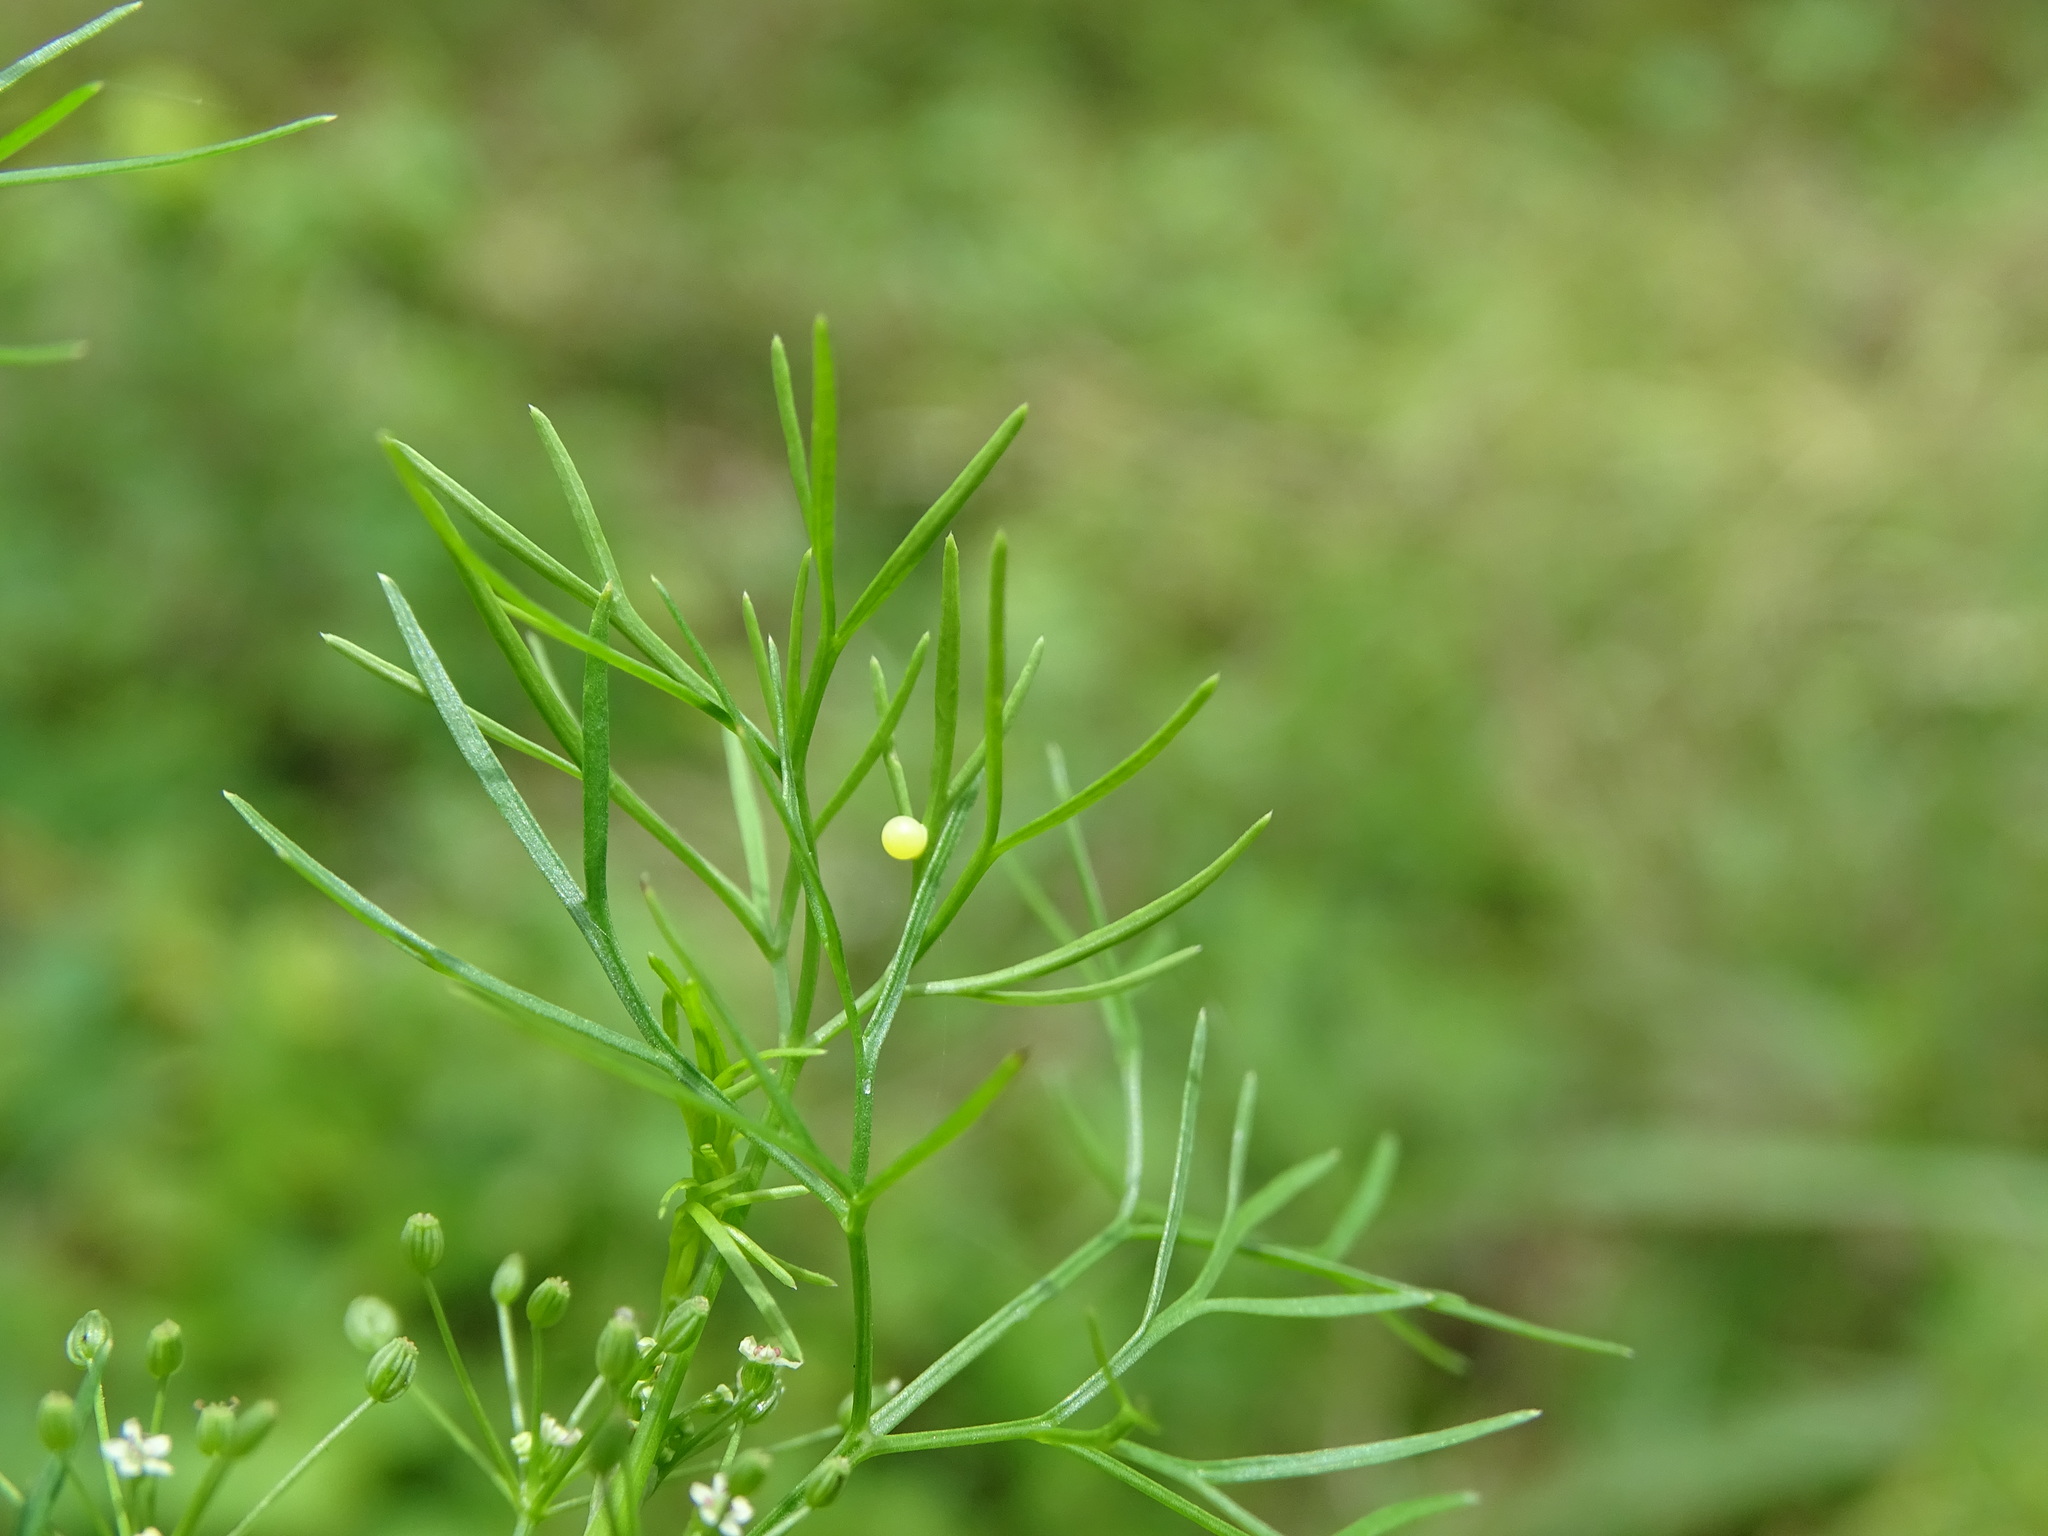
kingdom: Plantae
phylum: Tracheophyta
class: Magnoliopsida
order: Apiales
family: Apiaceae
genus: Cyclospermum
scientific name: Cyclospermum leptophyllum
